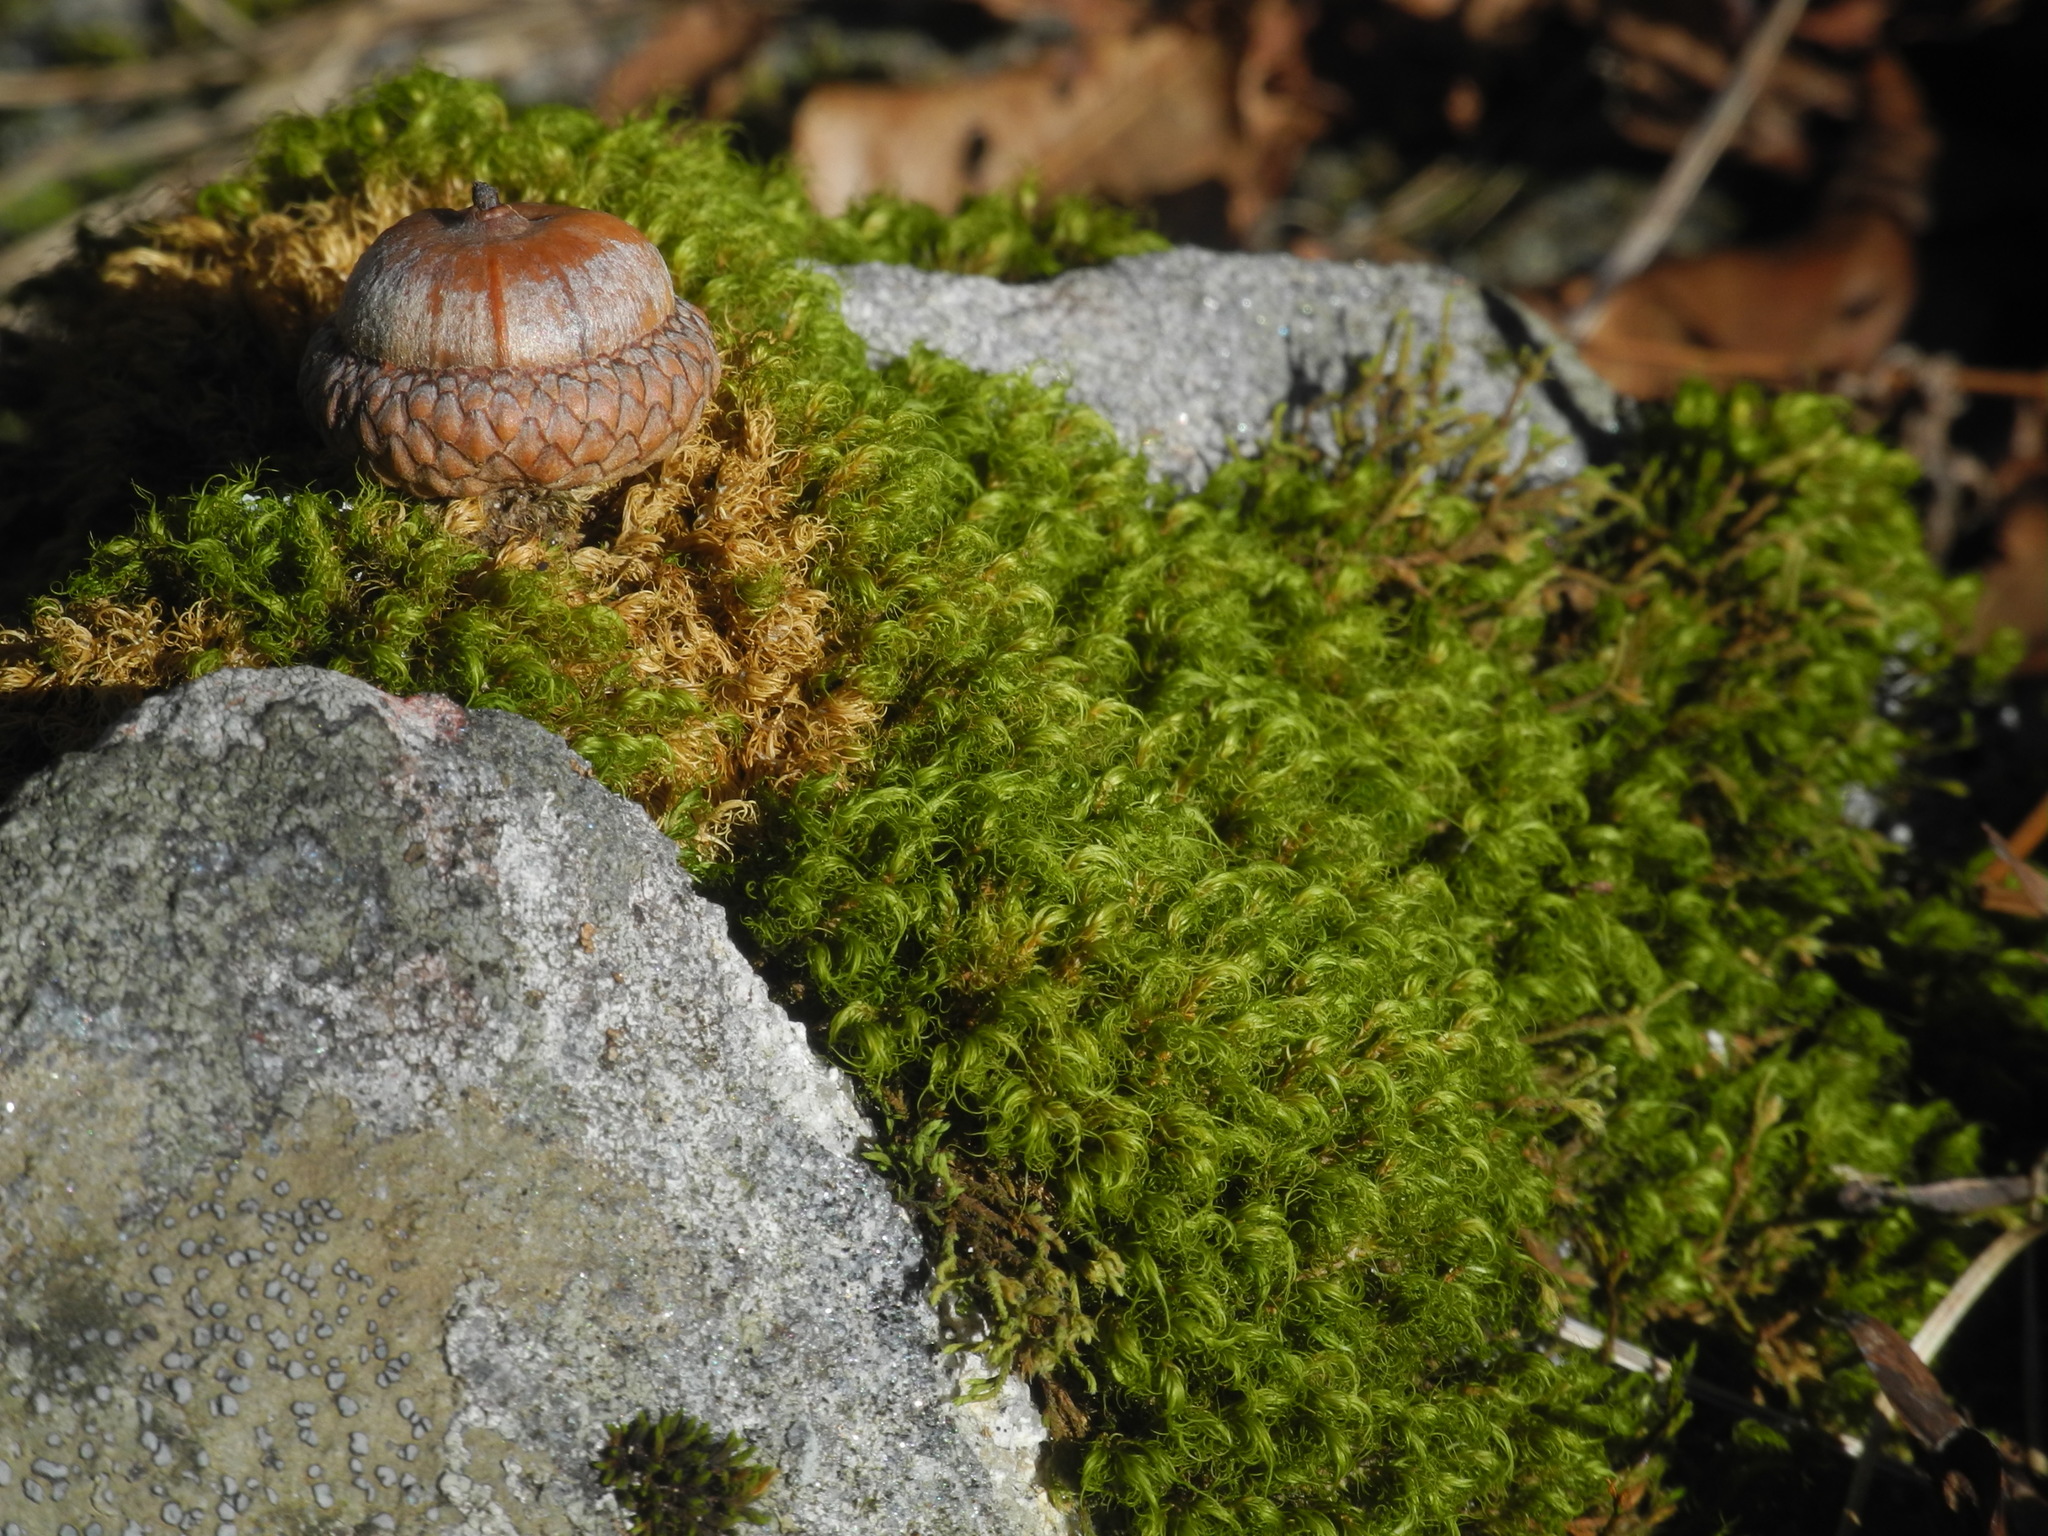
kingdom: Plantae
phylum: Tracheophyta
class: Magnoliopsida
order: Fagales
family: Fagaceae
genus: Quercus
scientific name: Quercus rubra
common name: Red oak
